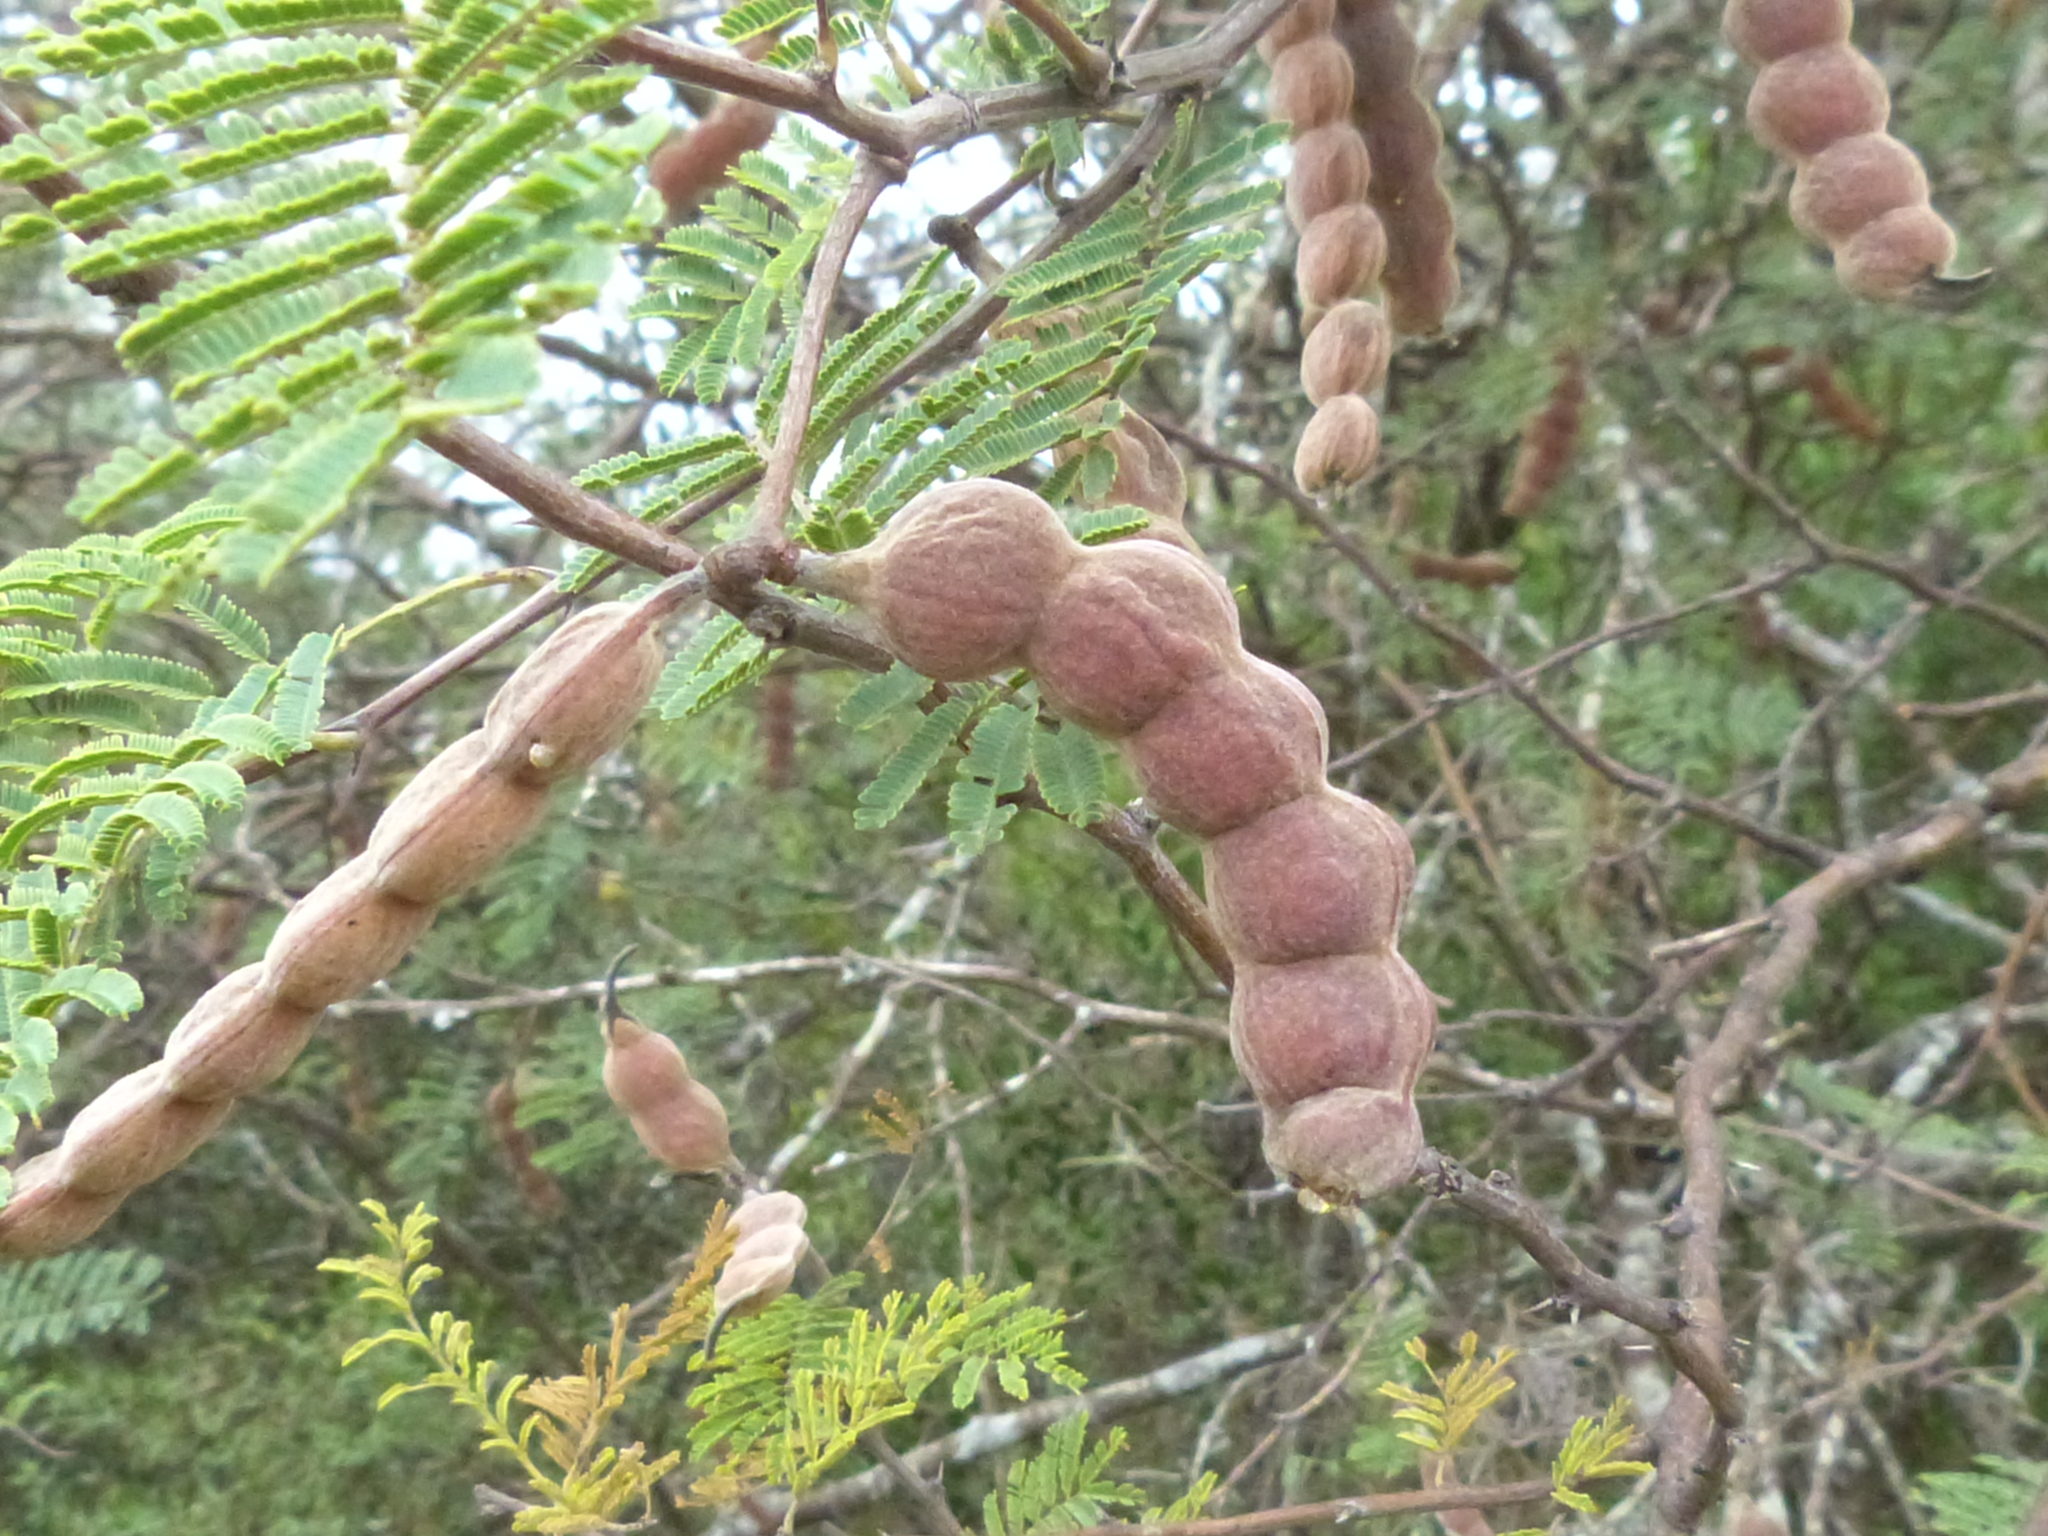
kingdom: Plantae
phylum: Tracheophyta
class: Magnoliopsida
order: Fabales
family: Fabaceae
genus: Vachellia
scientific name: Vachellia aroma
